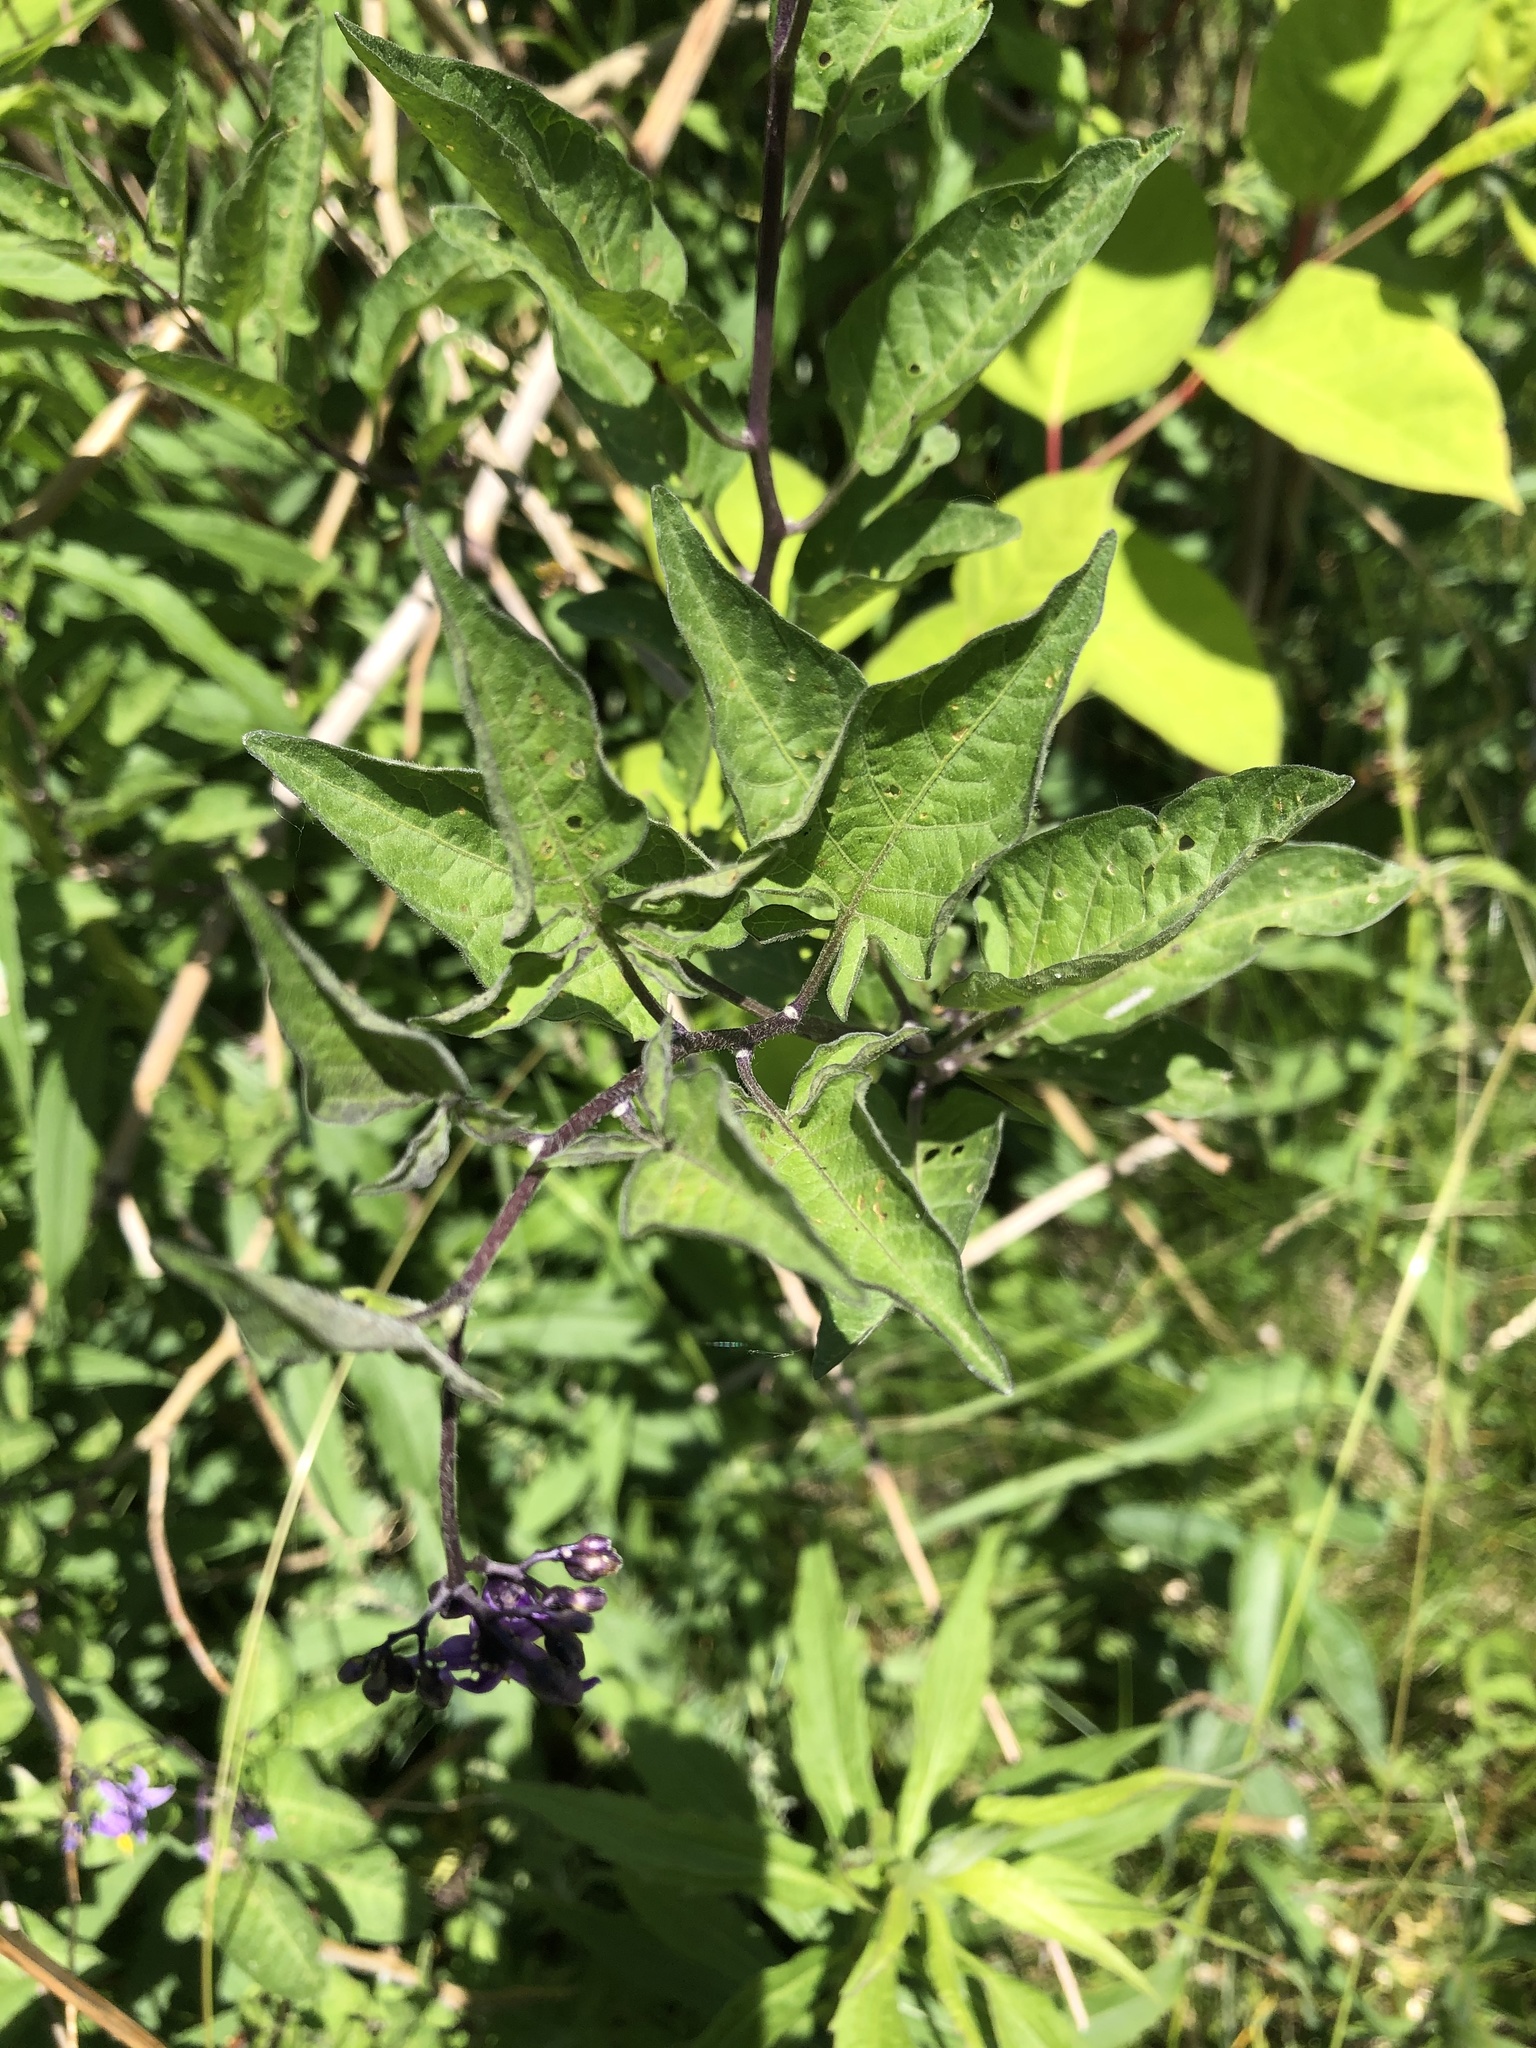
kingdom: Plantae
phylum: Tracheophyta
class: Magnoliopsida
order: Solanales
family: Solanaceae
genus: Solanum
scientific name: Solanum dulcamara
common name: Climbing nightshade
